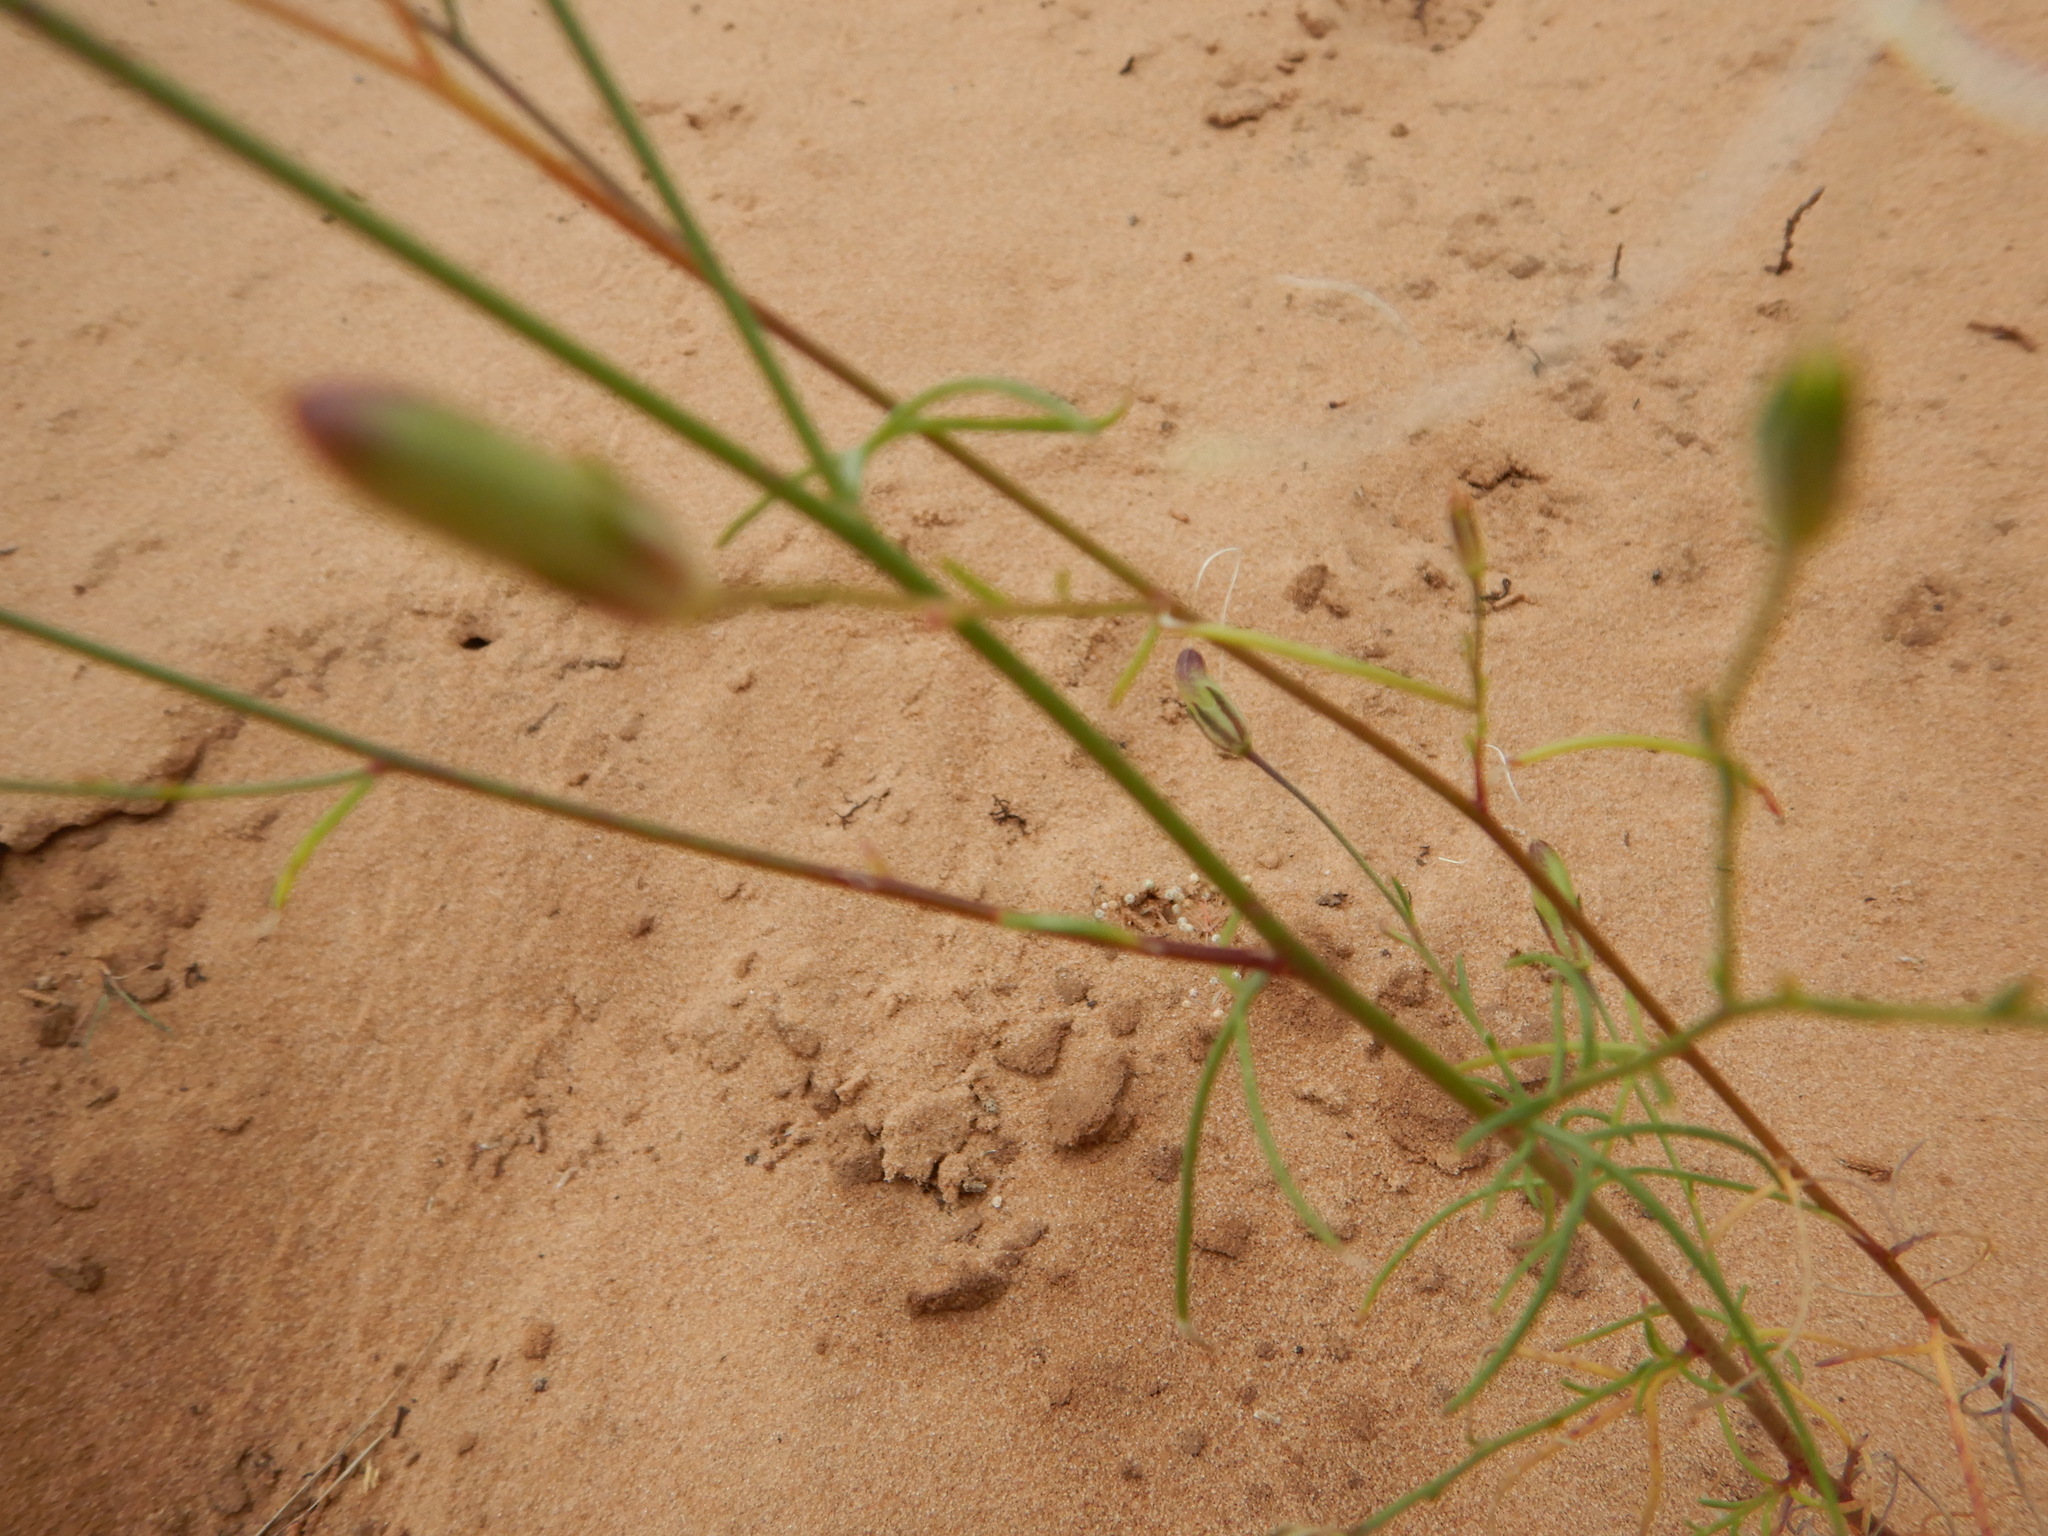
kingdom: Plantae
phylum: Tracheophyta
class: Magnoliopsida
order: Ericales
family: Polemoniaceae
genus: Ipomopsis
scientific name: Ipomopsis longiflora
